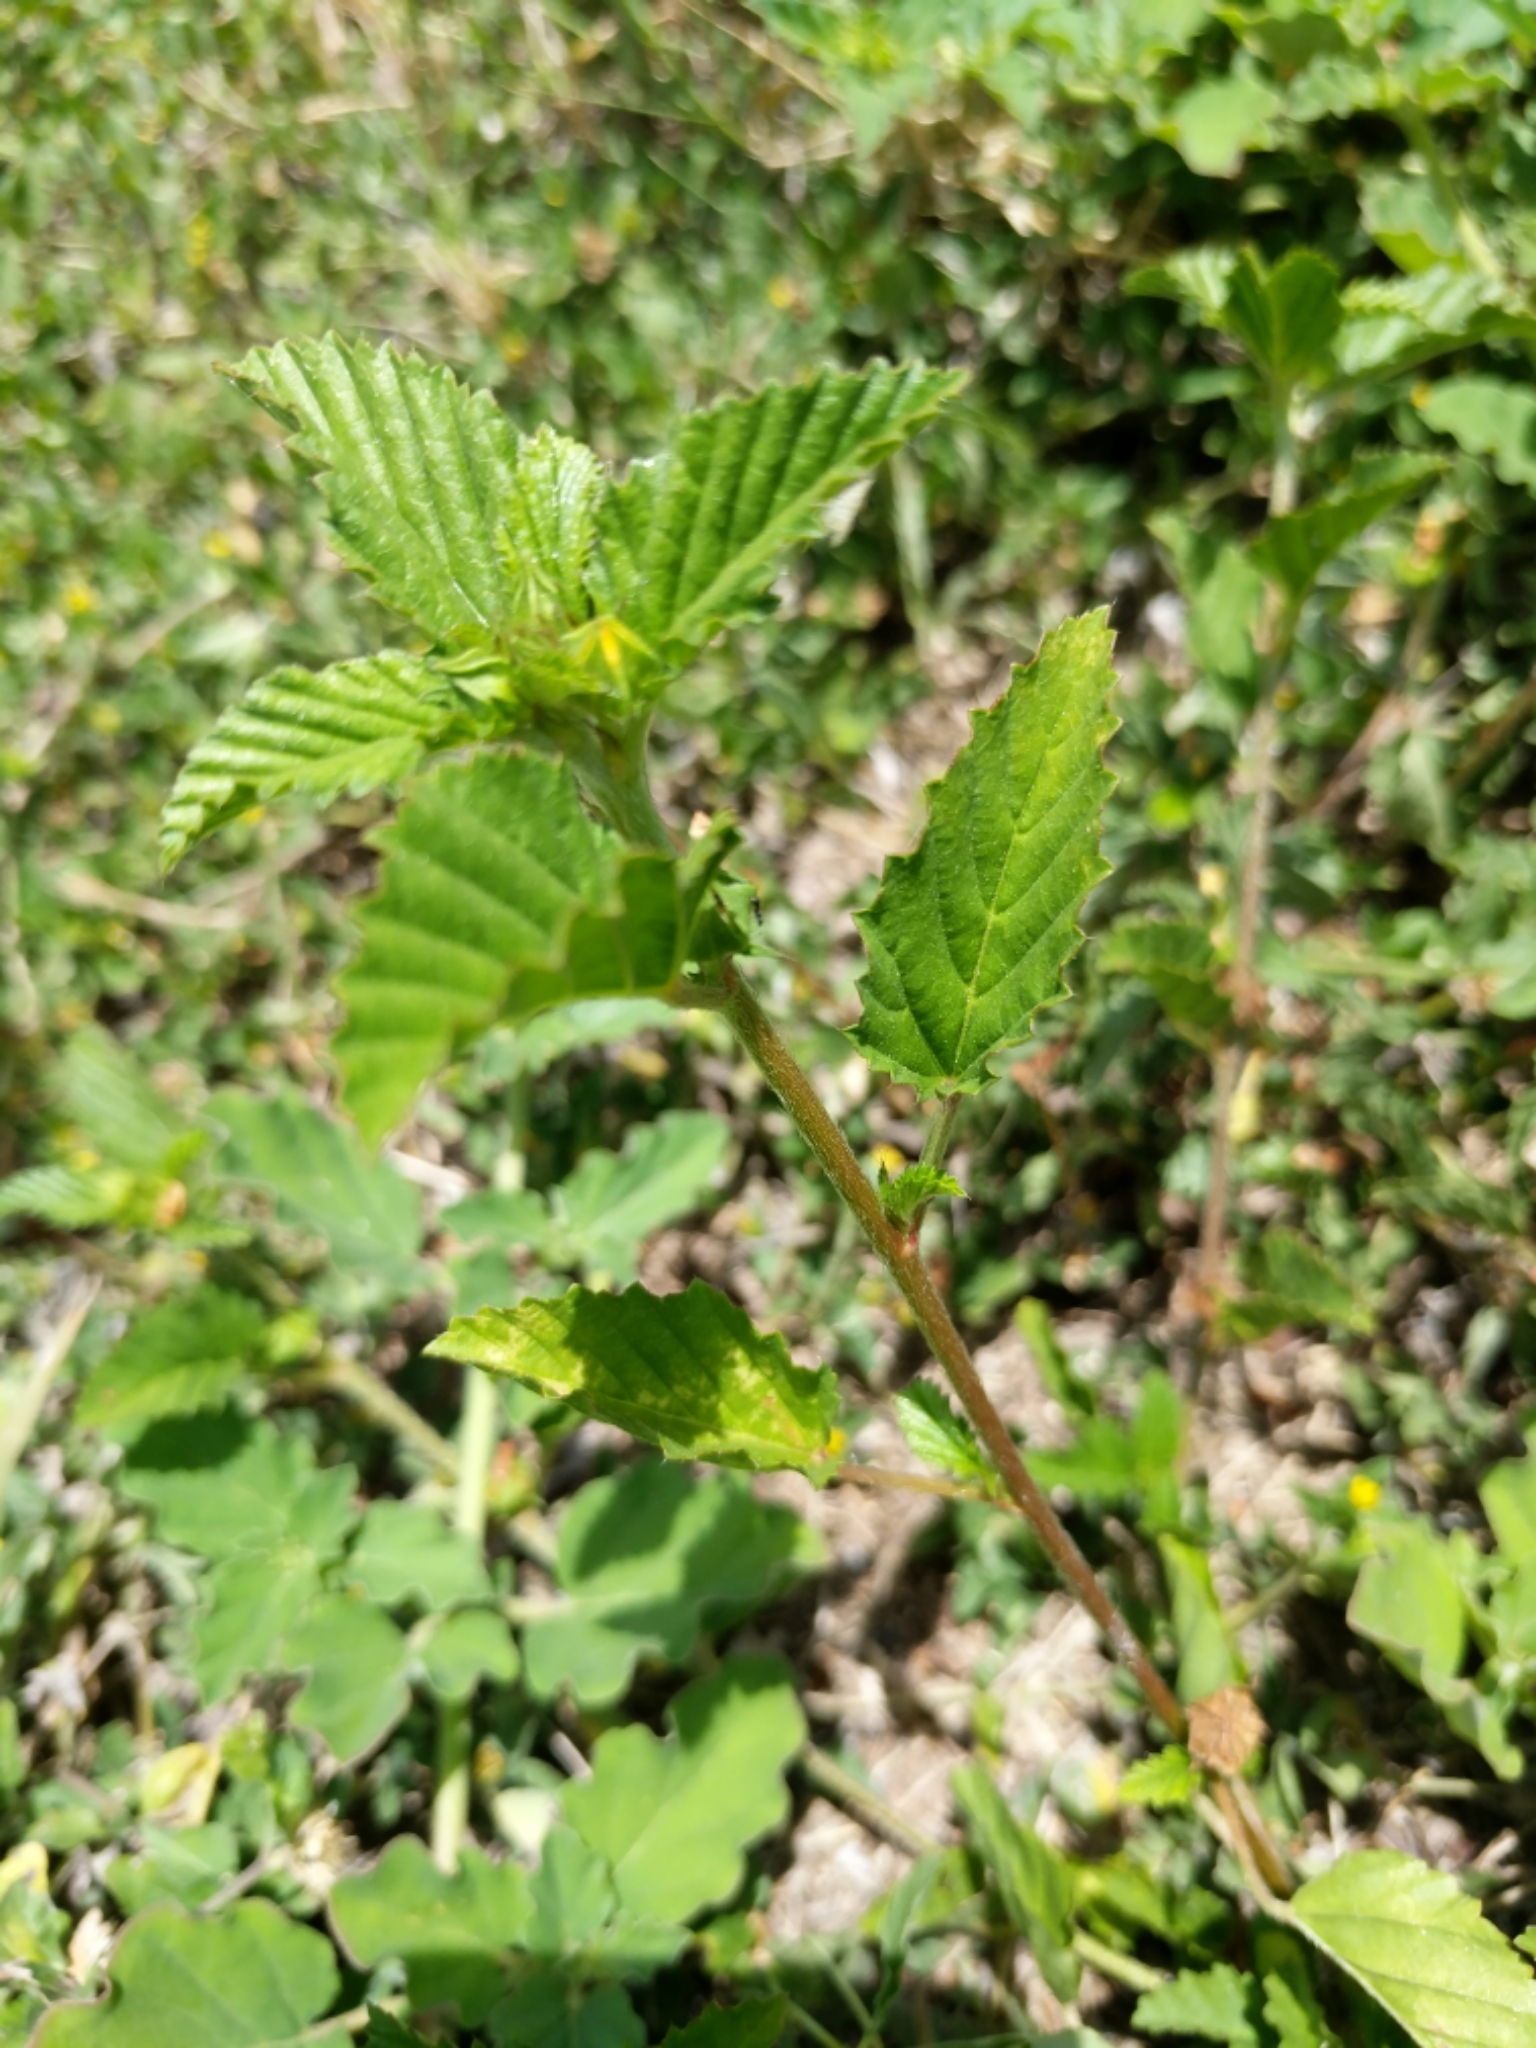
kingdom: Plantae
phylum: Tracheophyta
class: Magnoliopsida
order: Malvales
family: Malvaceae
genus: Malvastrum
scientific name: Malvastrum coromandelianum
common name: Threelobe false mallow
